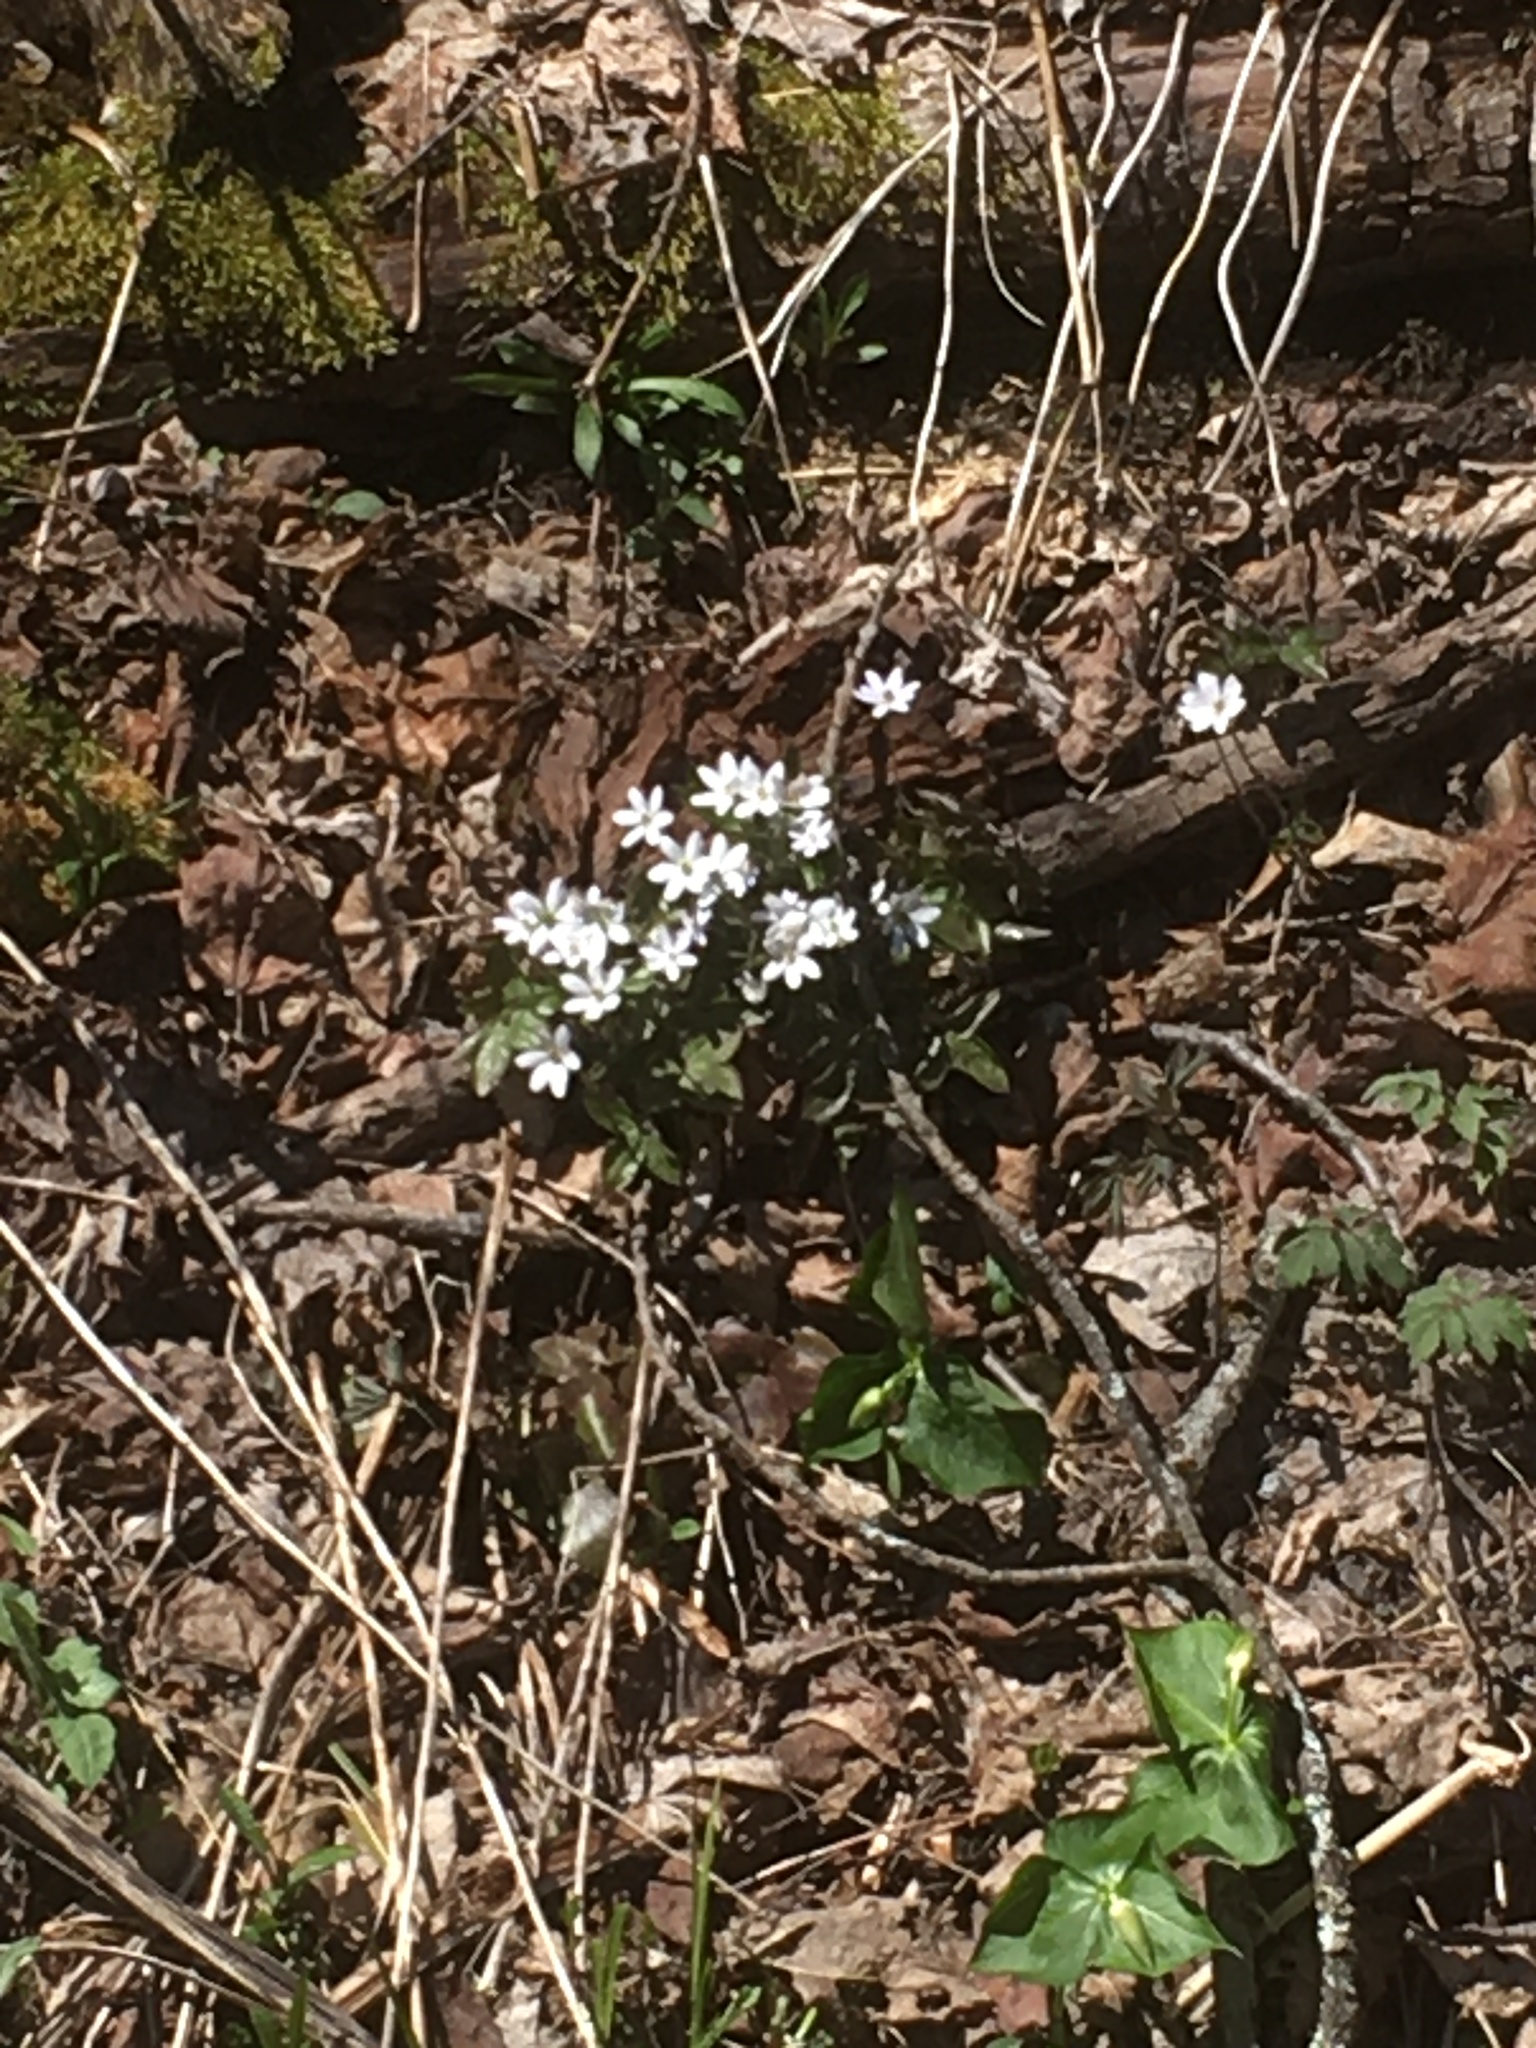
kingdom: Plantae
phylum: Tracheophyta
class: Magnoliopsida
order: Ranunculales
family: Ranunculaceae
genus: Hepatica
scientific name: Hepatica acutiloba
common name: Sharp-lobed hepatica
